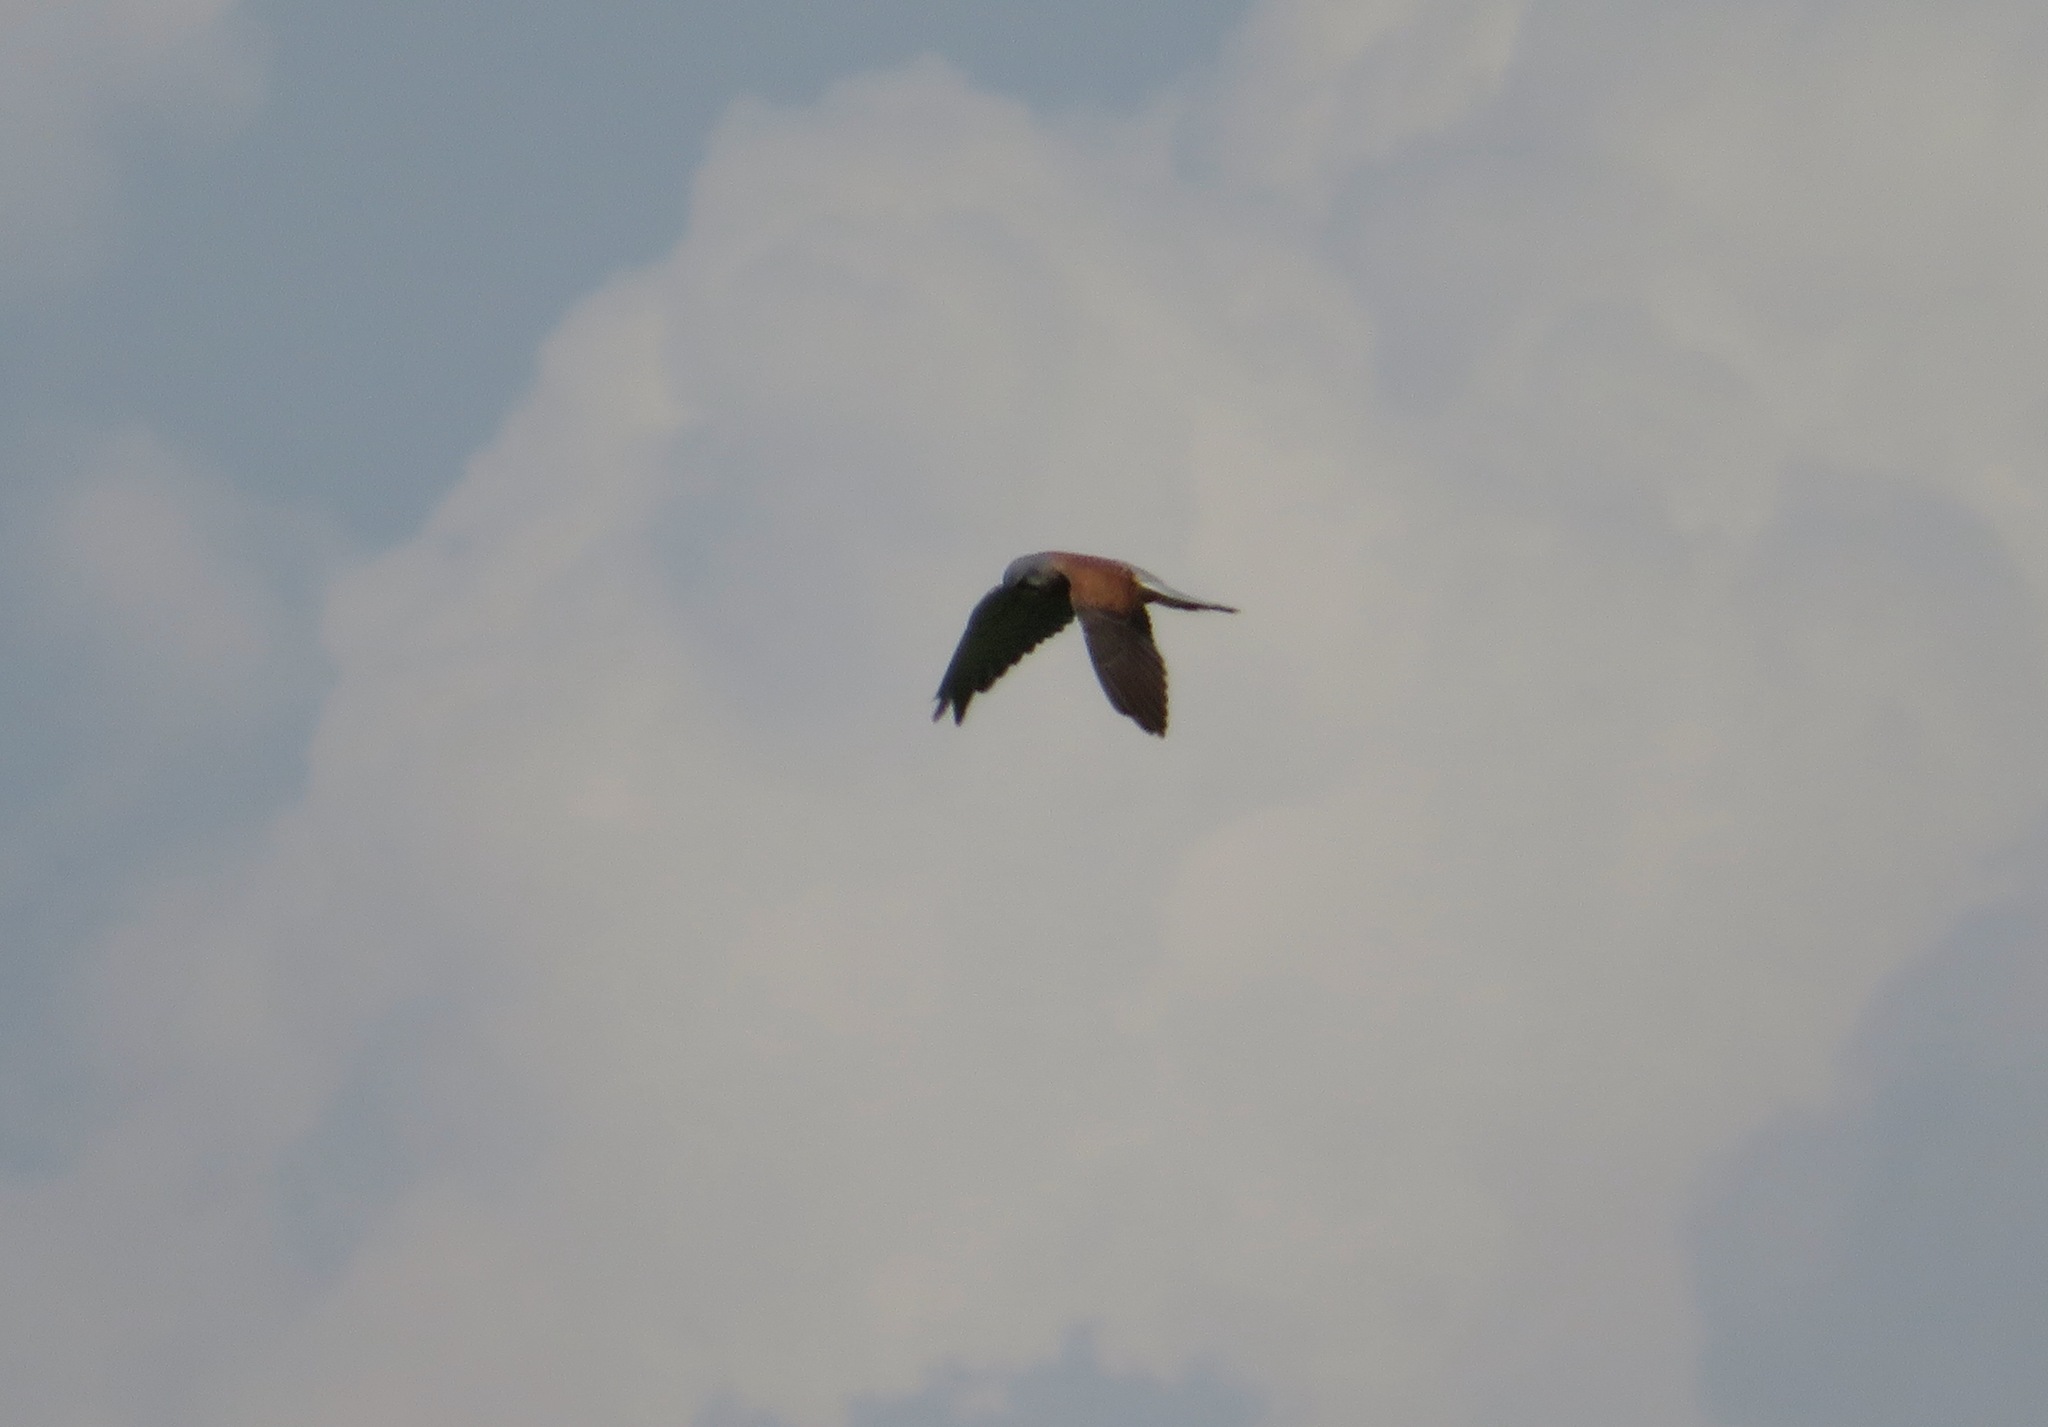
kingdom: Animalia
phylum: Chordata
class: Aves
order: Falconiformes
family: Falconidae
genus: Falco
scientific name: Falco tinnunculus
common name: Common kestrel
